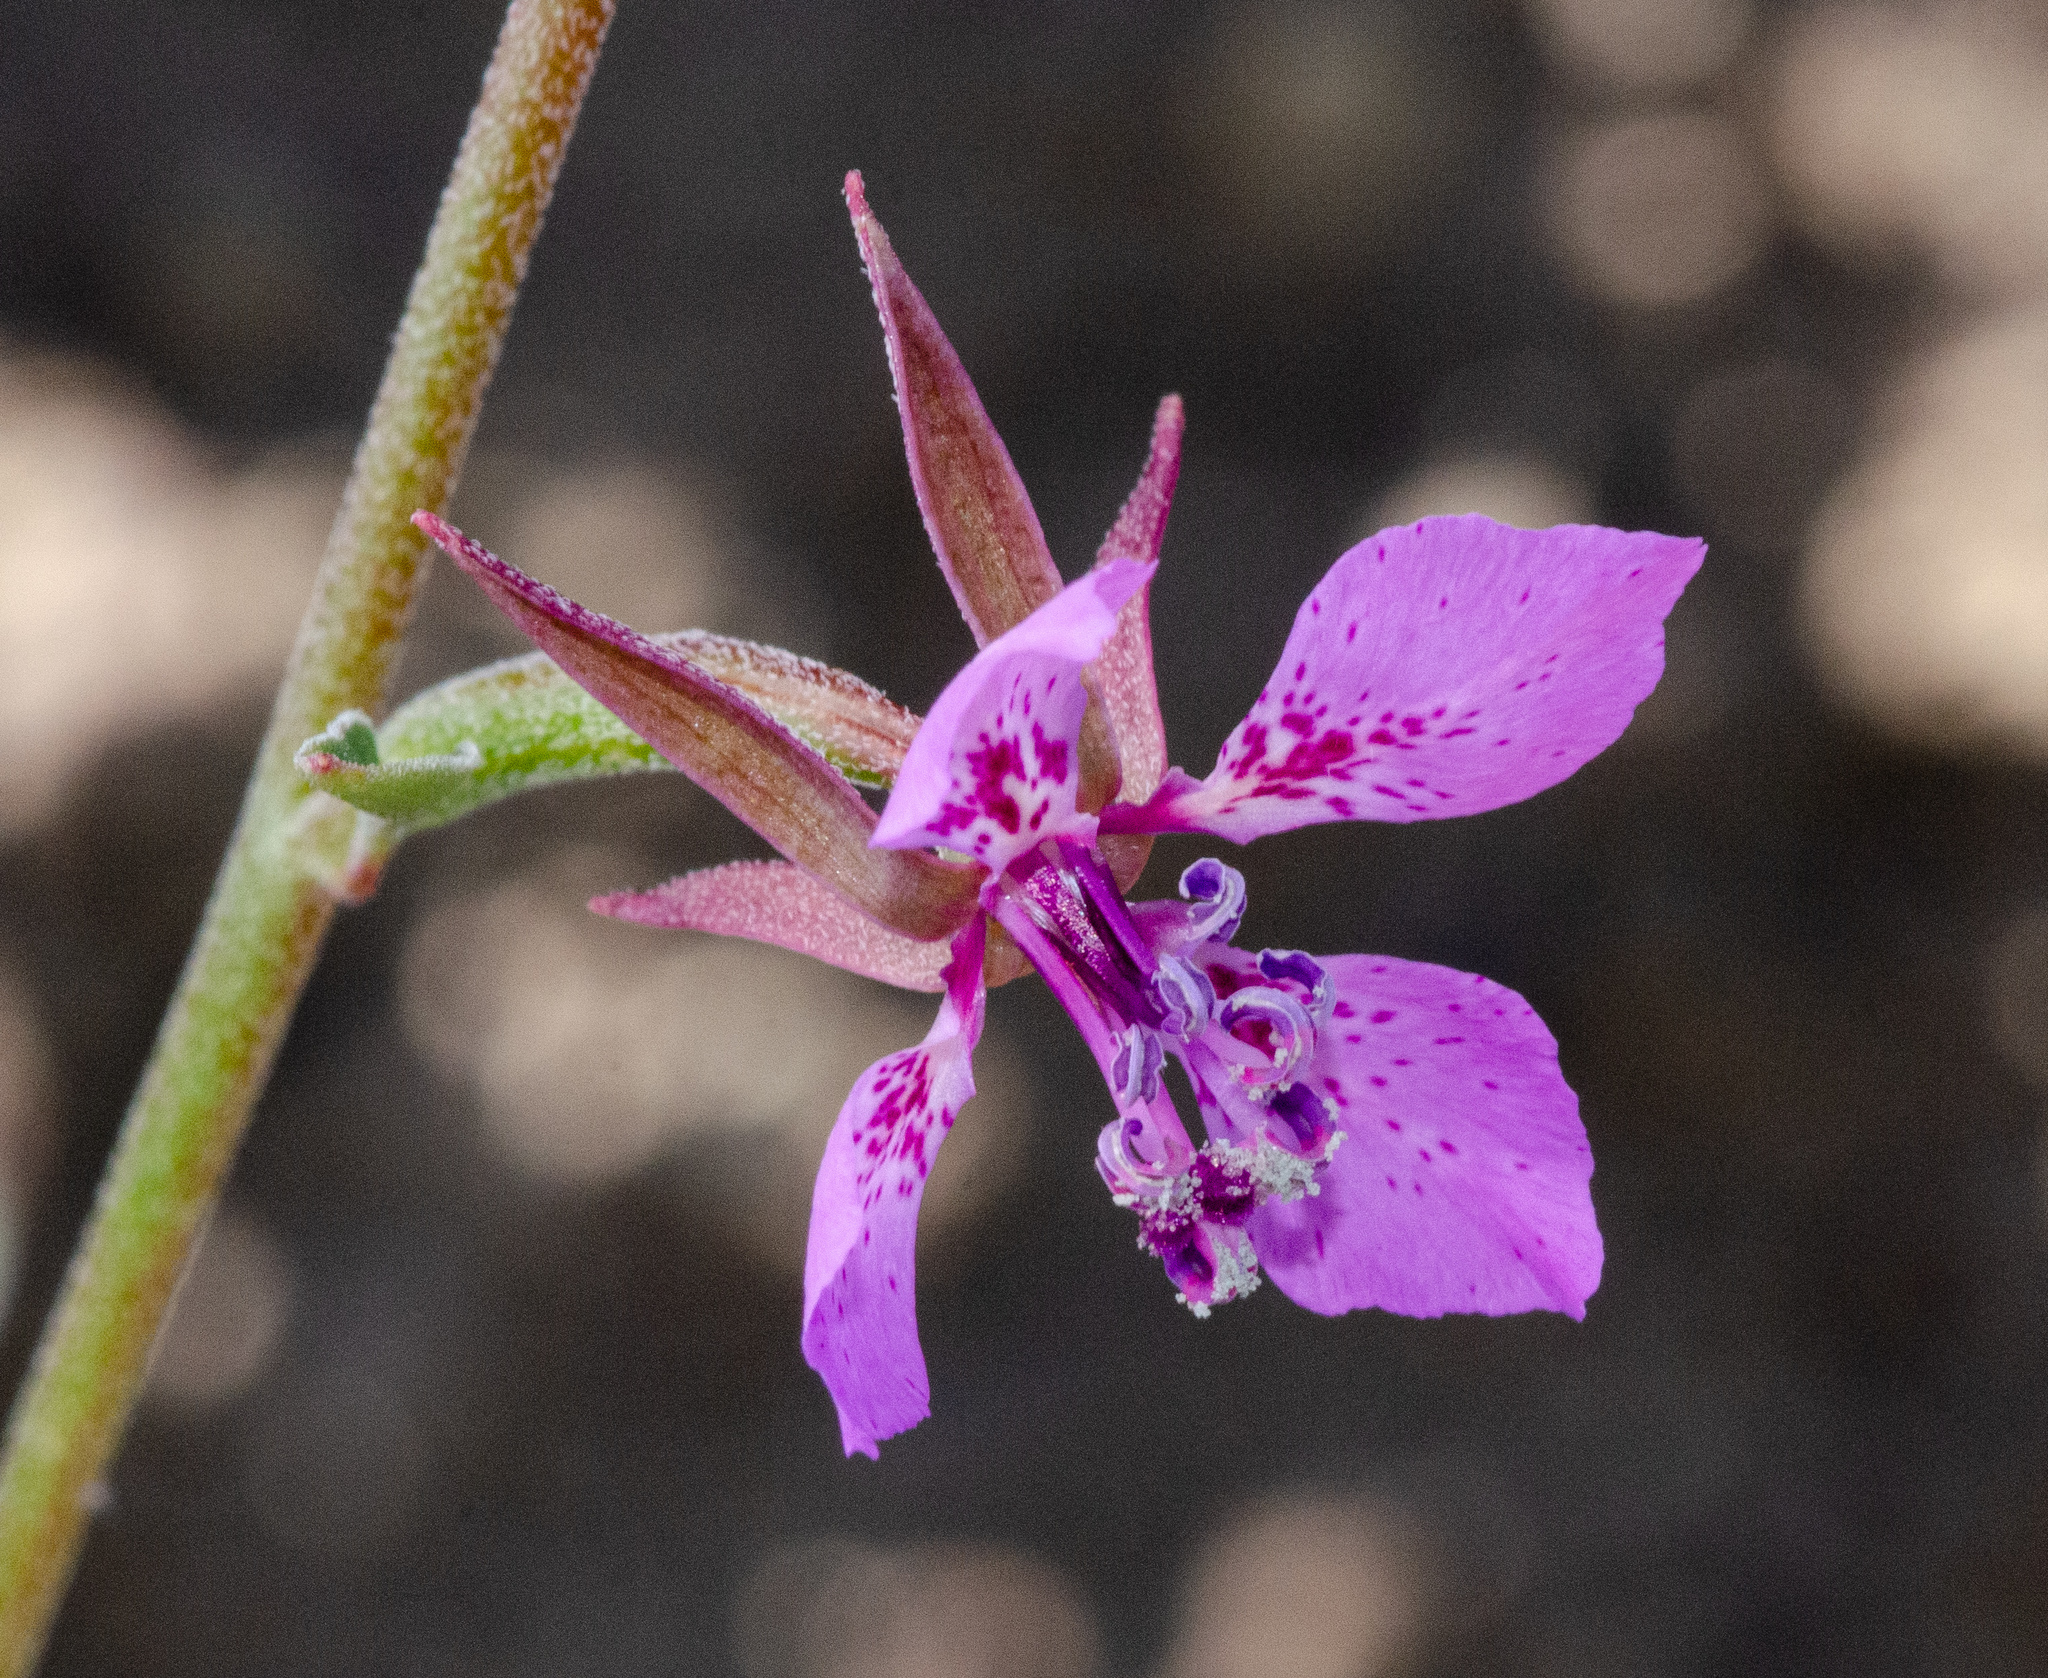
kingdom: Plantae
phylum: Tracheophyta
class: Magnoliopsida
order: Myrtales
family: Onagraceae
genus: Clarkia
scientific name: Clarkia rhomboidea
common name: Broadleaf clarkia
